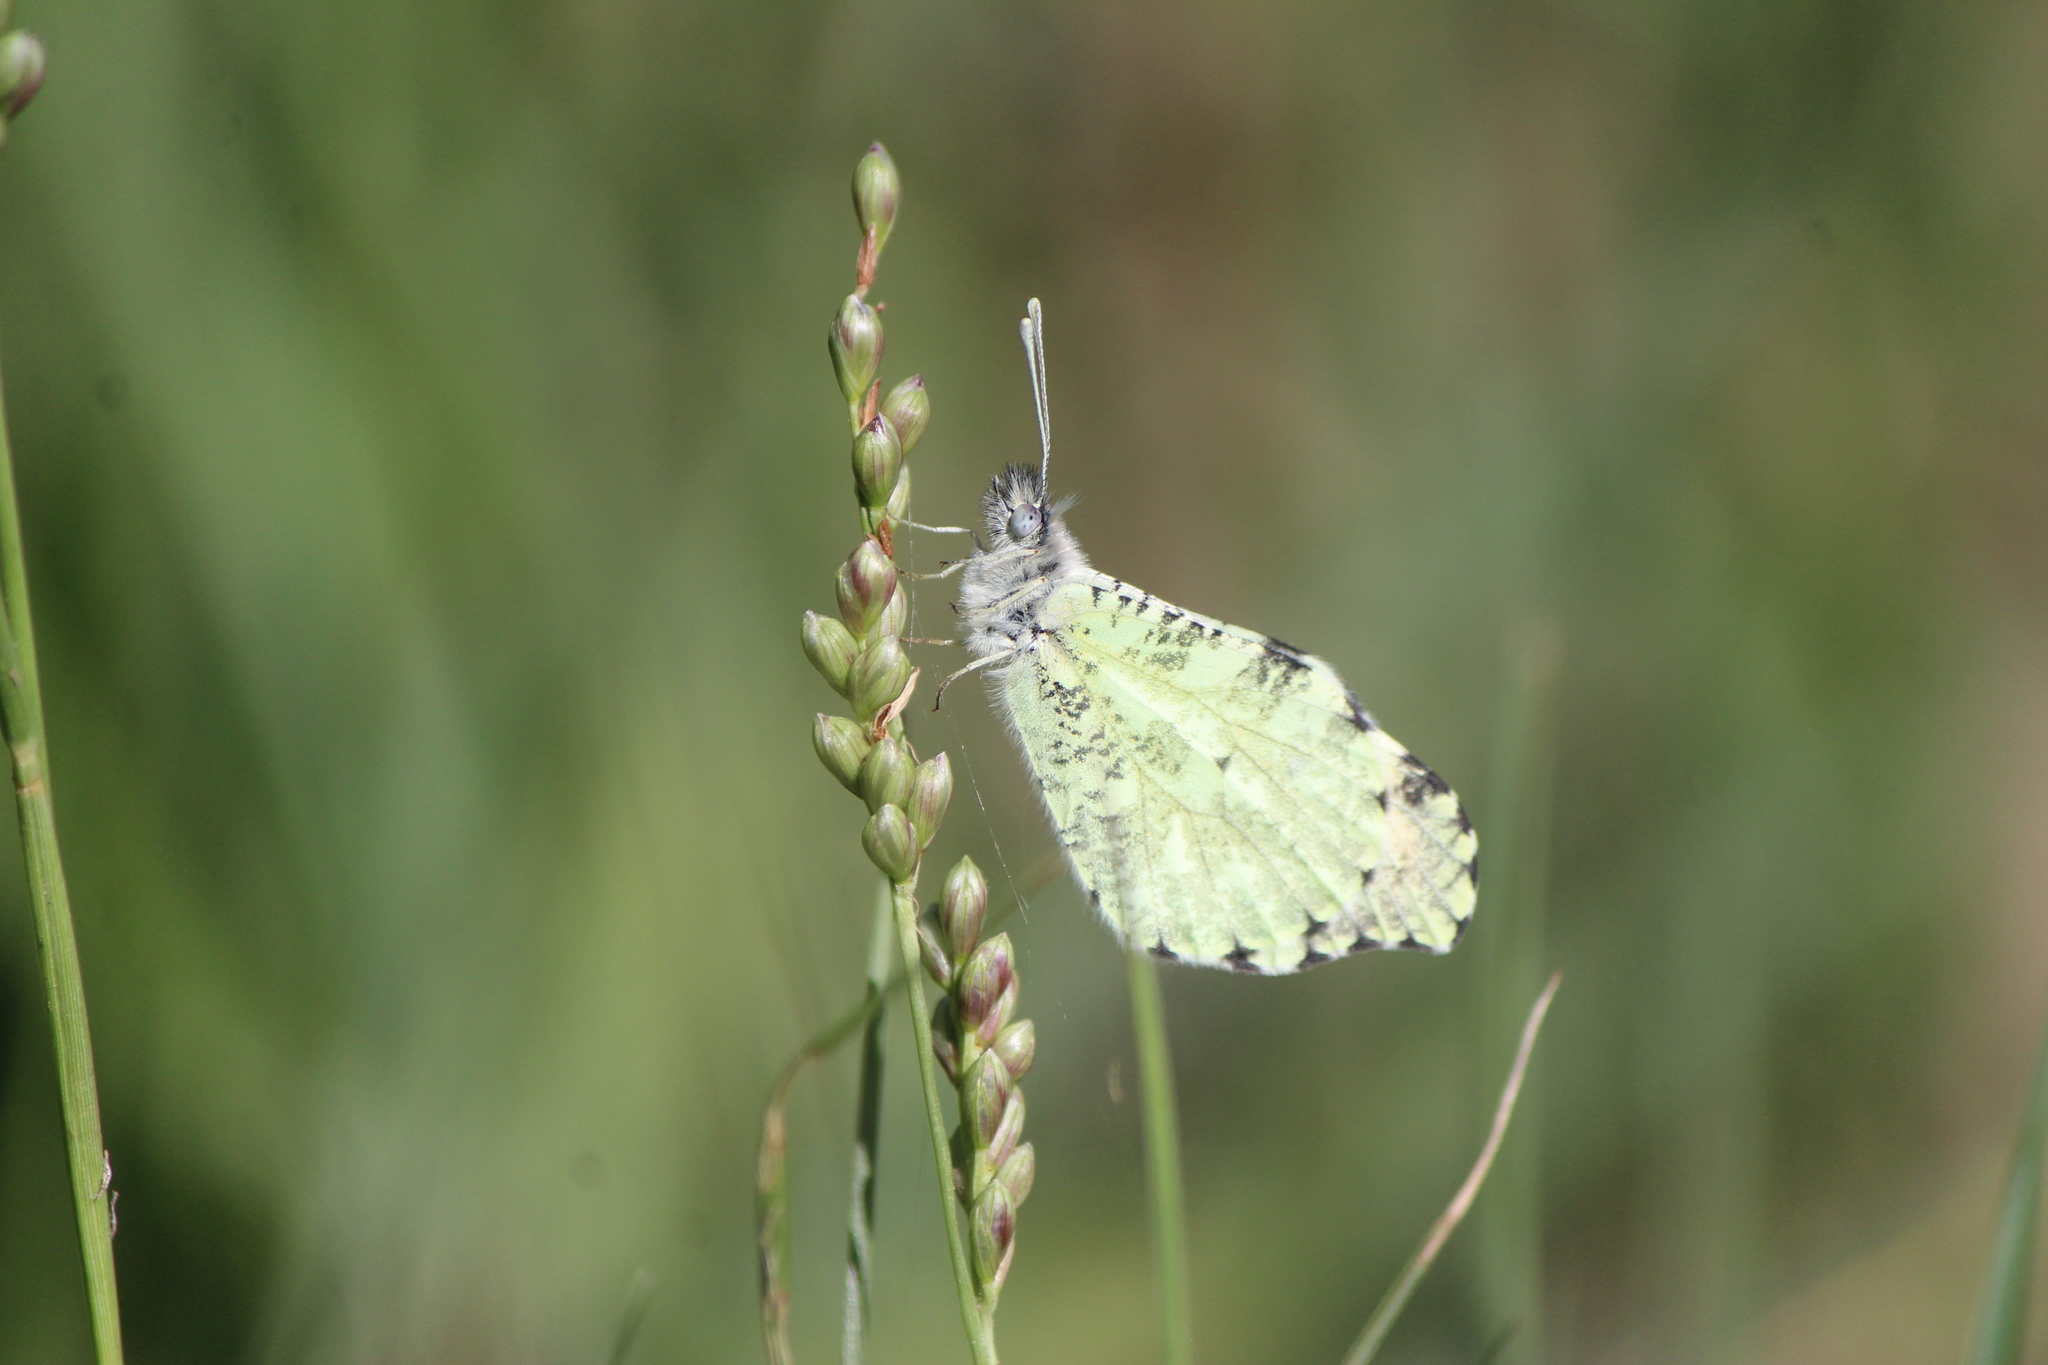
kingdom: Animalia
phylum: Arthropoda
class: Insecta
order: Lepidoptera
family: Pieridae
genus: Anthocharis
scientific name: Anthocharis limonea
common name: Mexican orangetip
